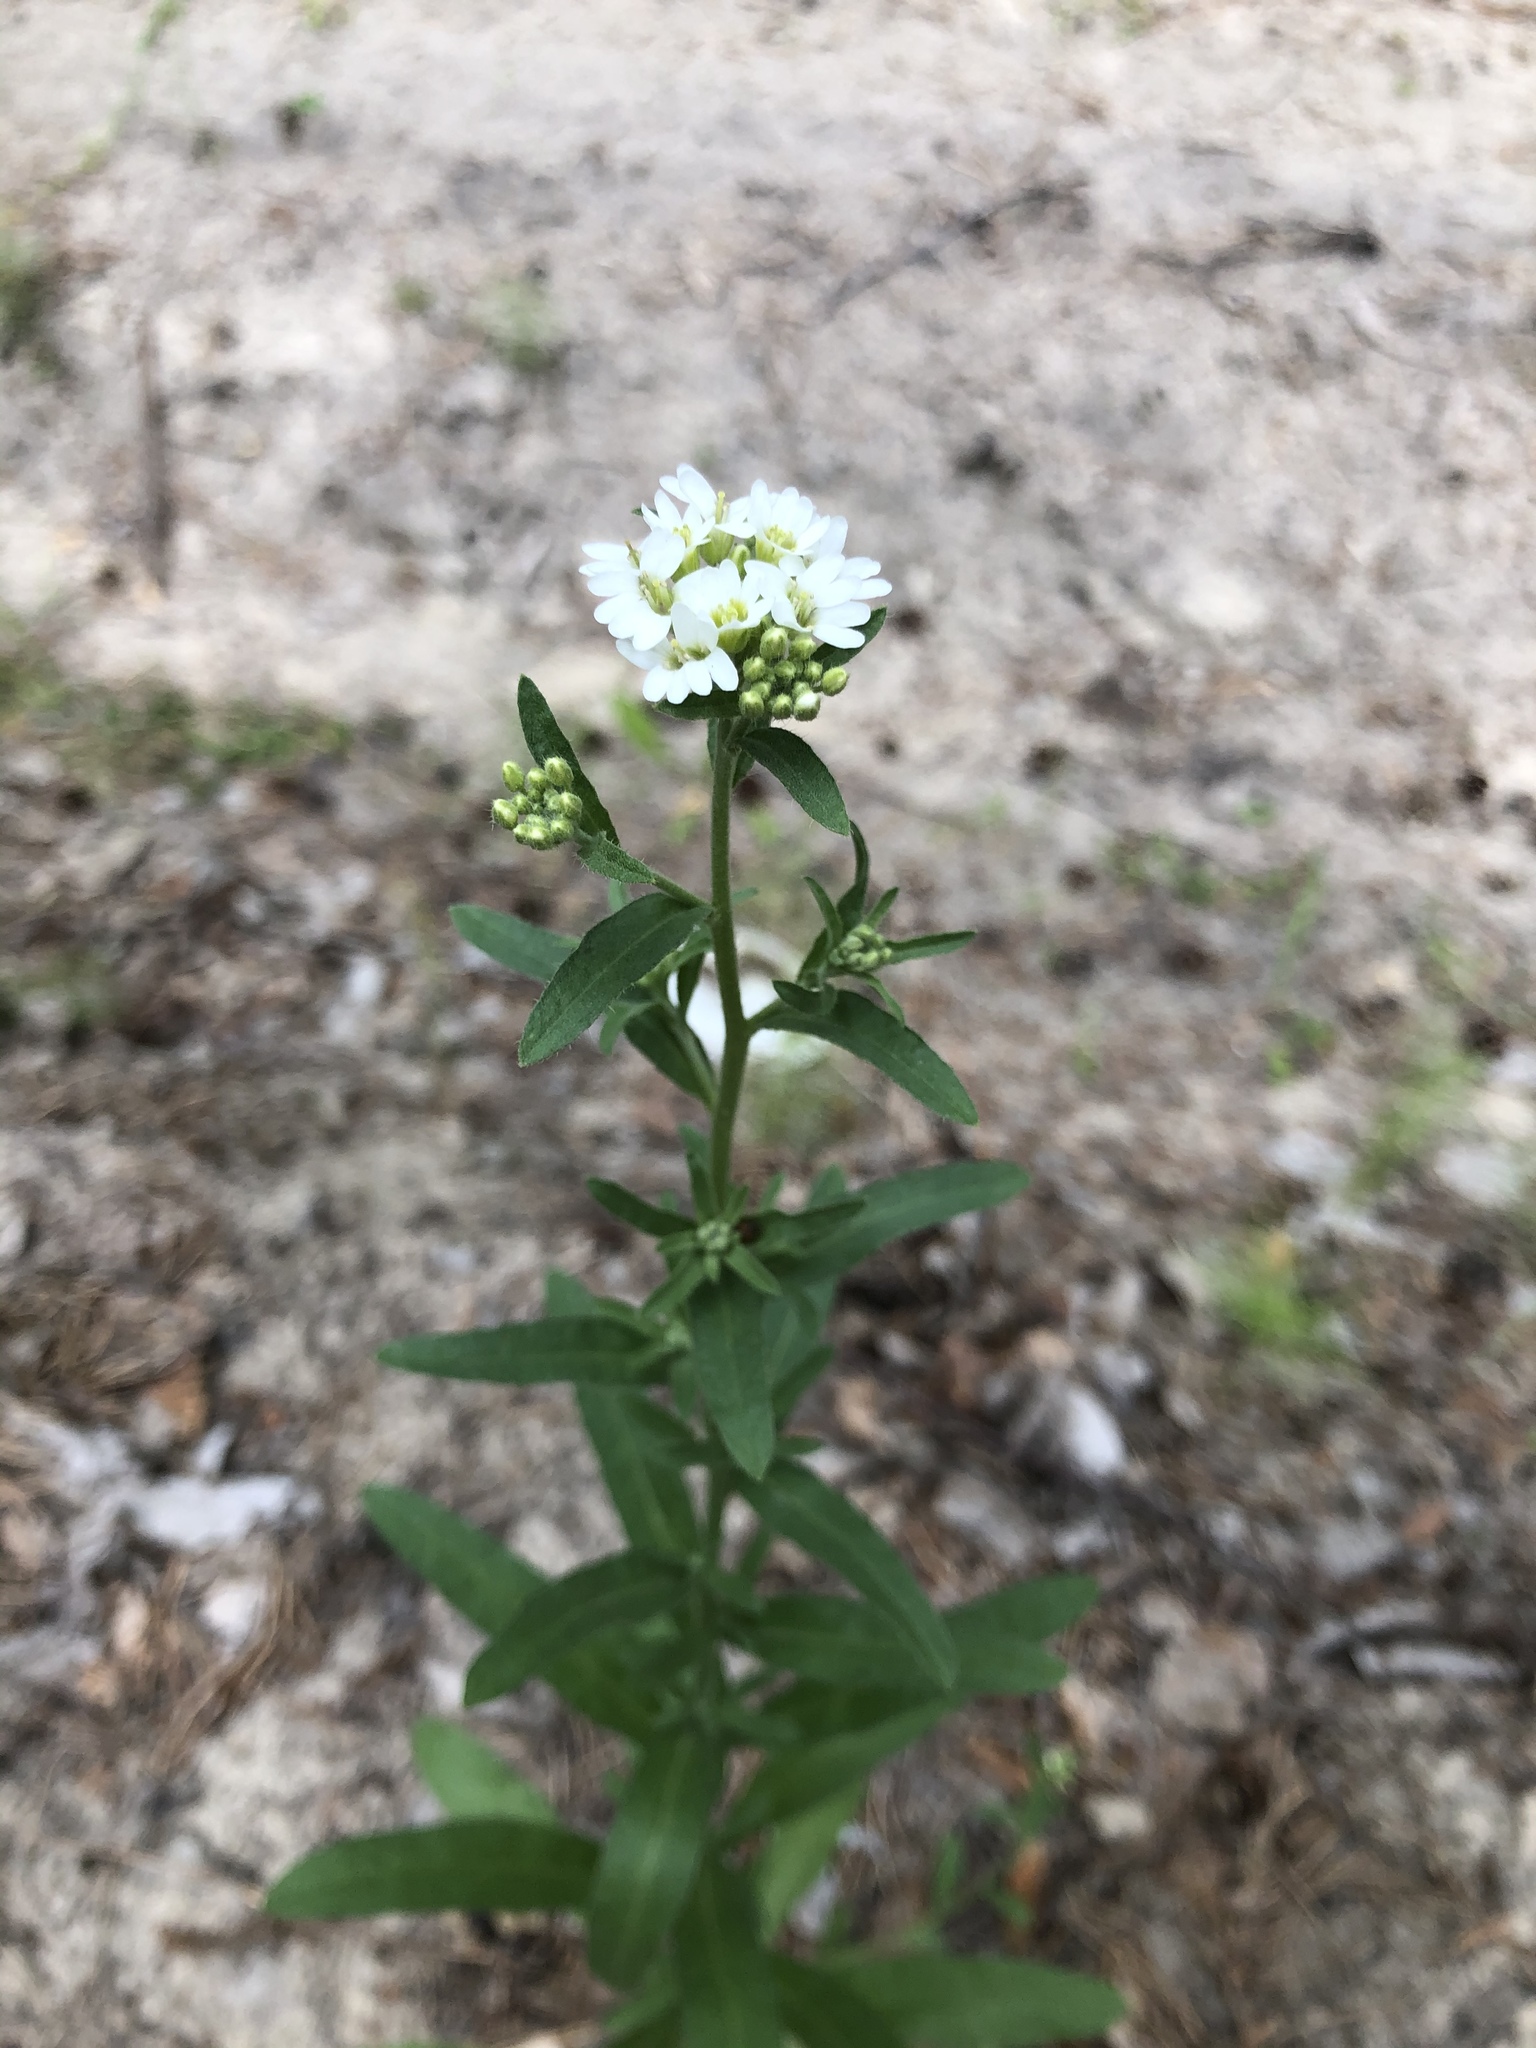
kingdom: Plantae
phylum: Tracheophyta
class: Magnoliopsida
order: Brassicales
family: Brassicaceae
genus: Berteroa
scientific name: Berteroa incana
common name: Hoary alison
